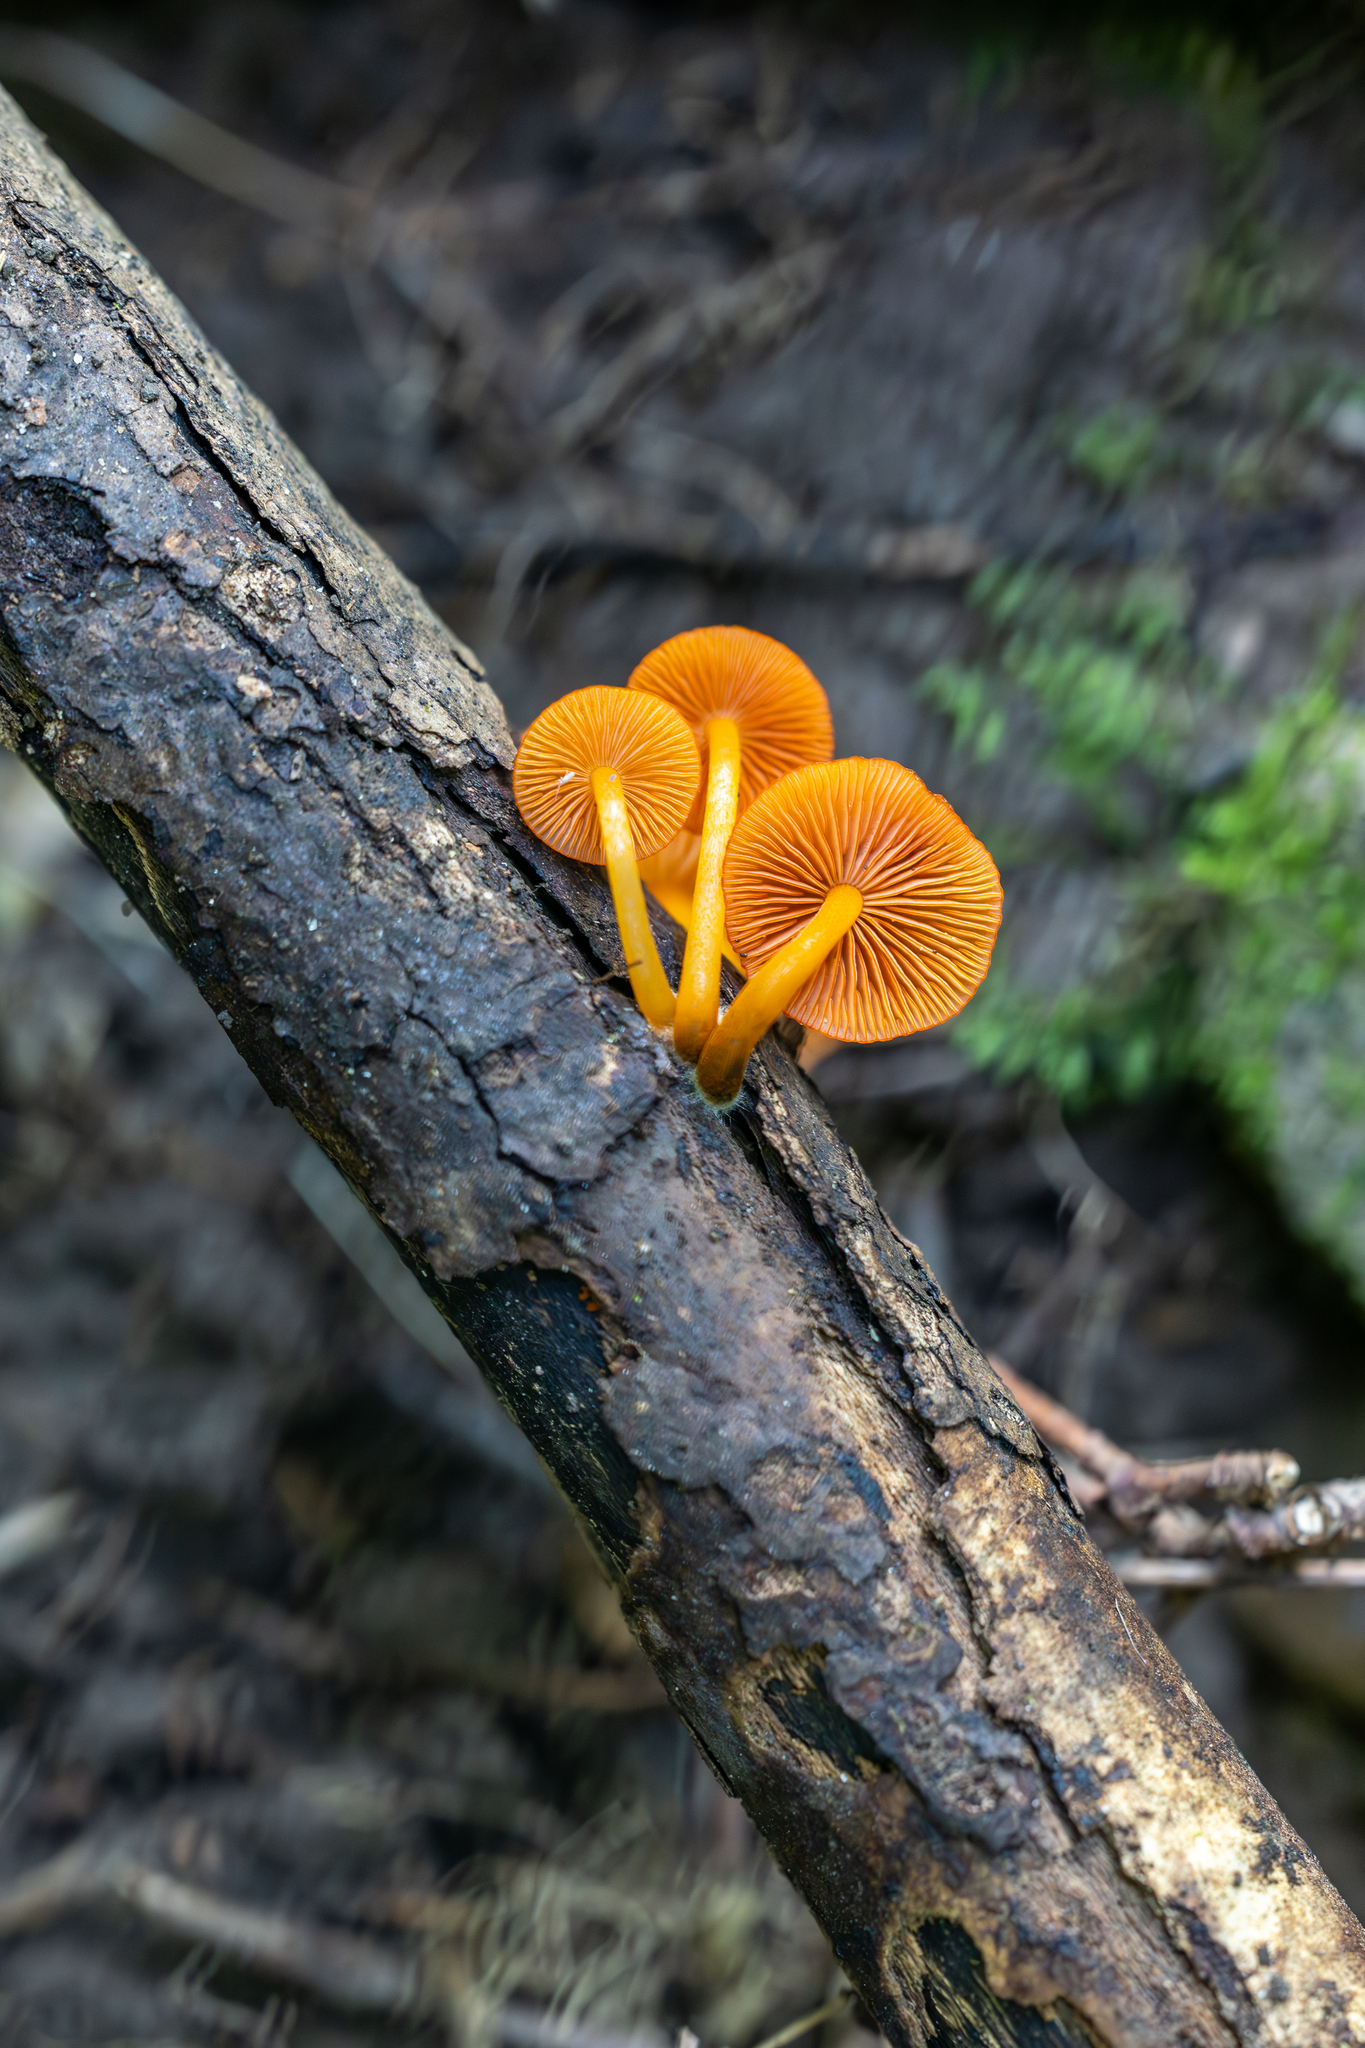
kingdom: Fungi
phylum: Basidiomycota
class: Agaricomycetes
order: Agaricales
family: Mycenaceae
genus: Mycena
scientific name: Mycena leaiana
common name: Orange mycena
